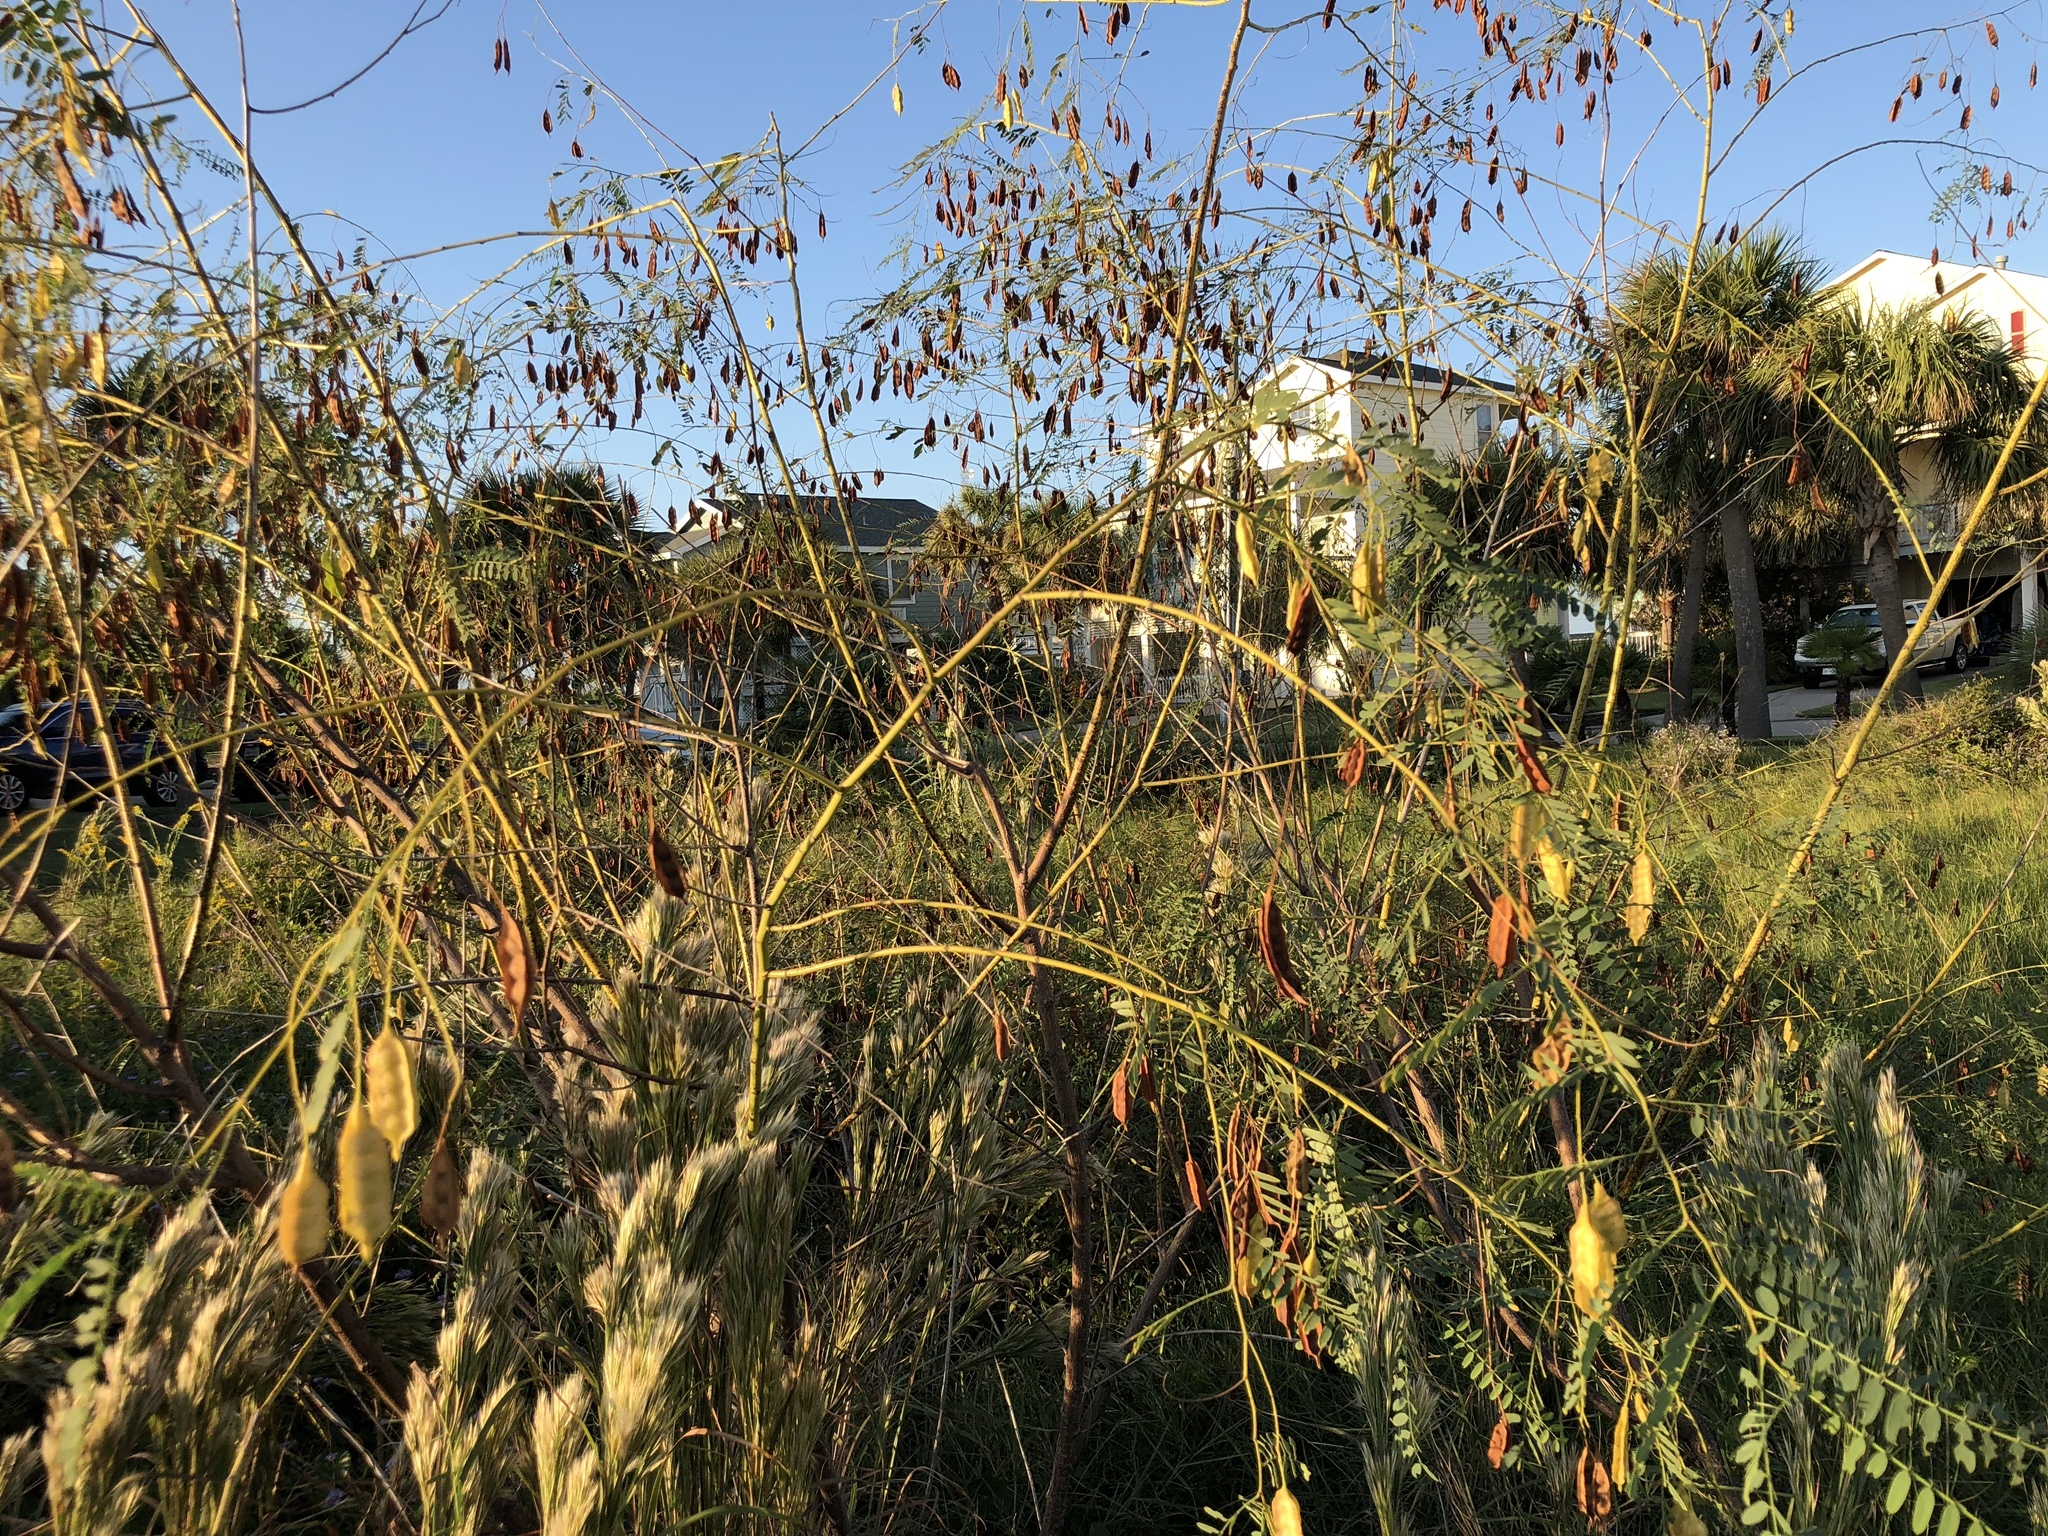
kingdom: Plantae
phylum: Tracheophyta
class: Magnoliopsida
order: Fabales
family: Fabaceae
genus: Sesbania
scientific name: Sesbania drummondii
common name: Poison-bean
